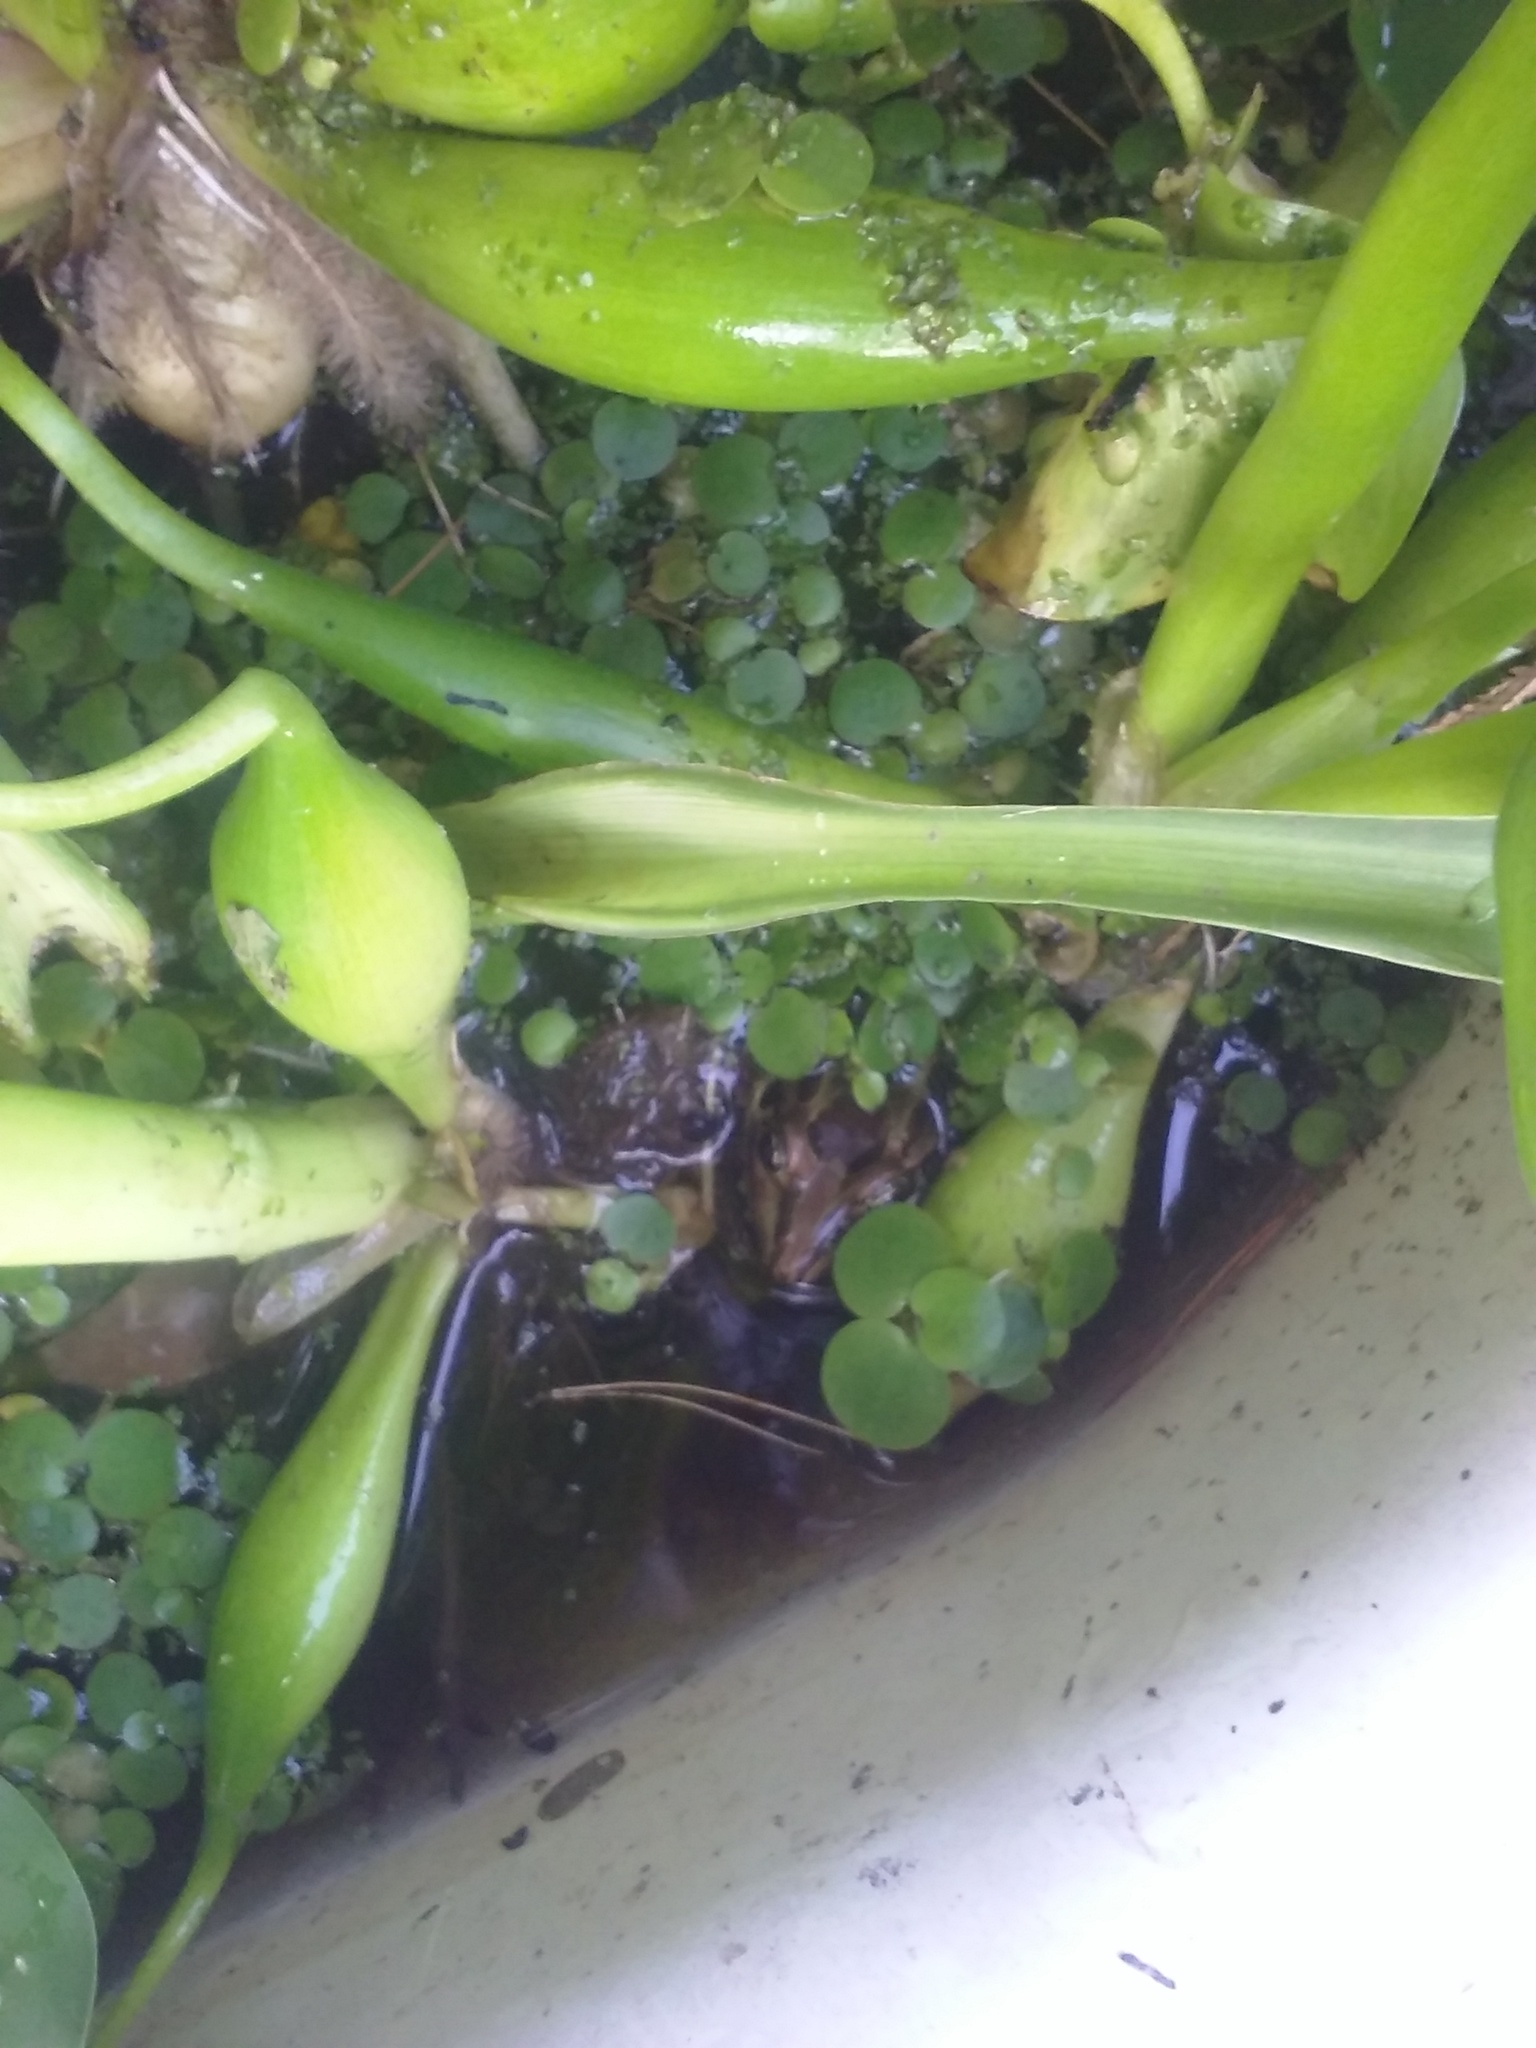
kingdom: Animalia
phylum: Chordata
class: Amphibia
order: Anura
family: Leptodactylidae
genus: Leptodactylus
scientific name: Leptodactylus luctator
